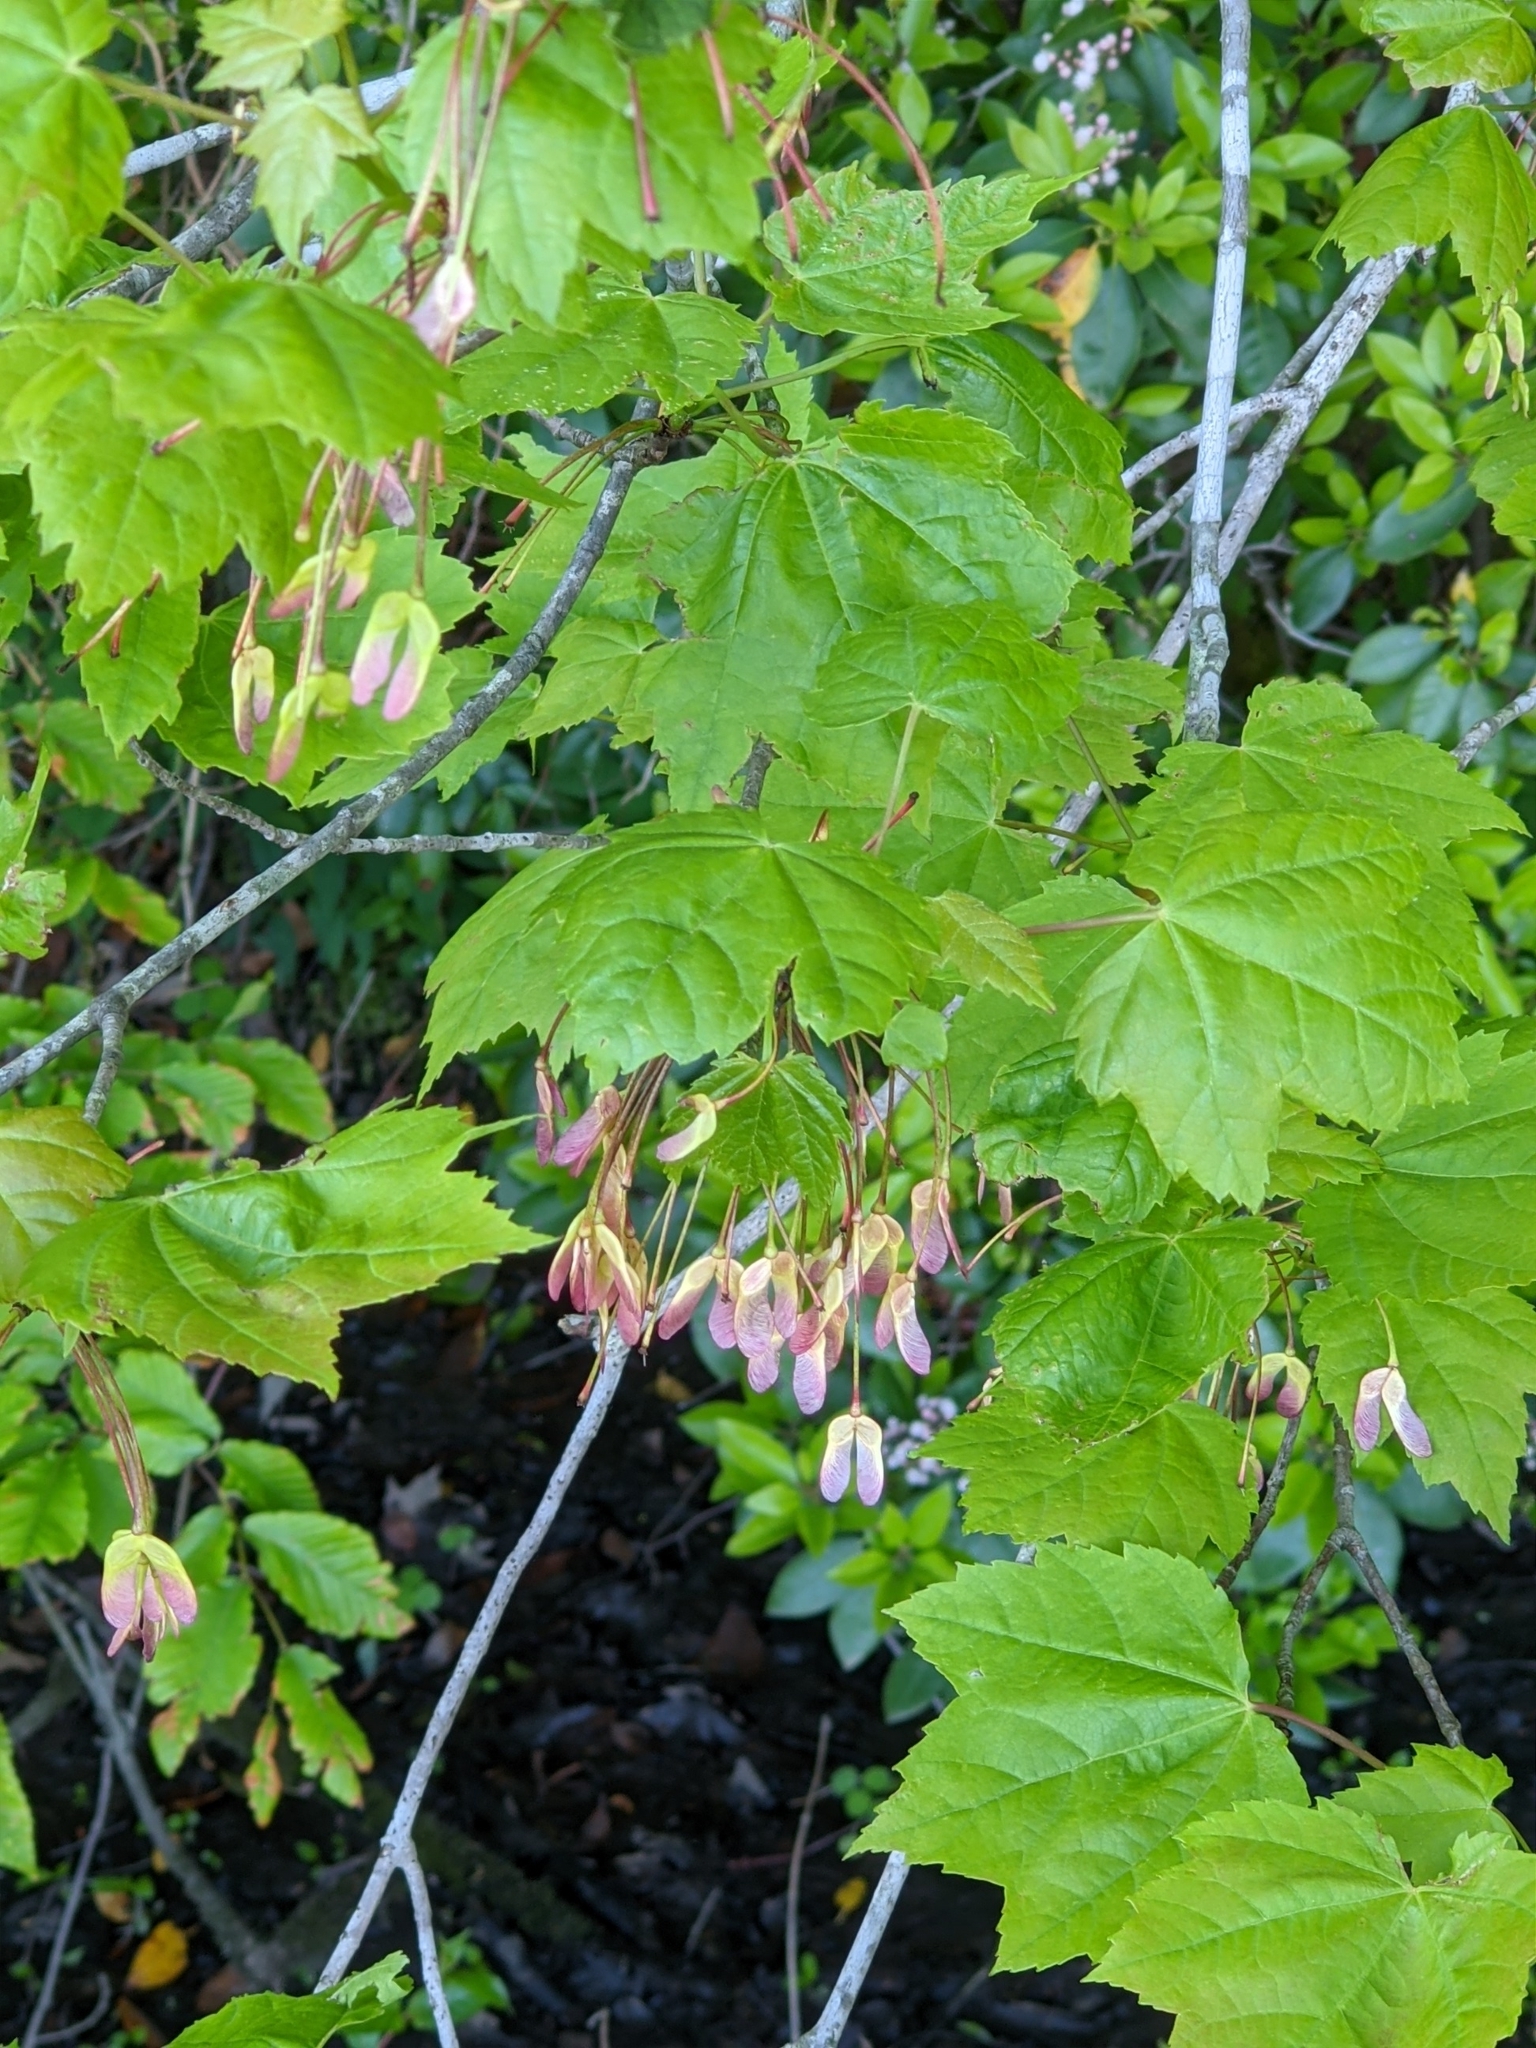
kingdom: Plantae
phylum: Tracheophyta
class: Magnoliopsida
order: Sapindales
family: Sapindaceae
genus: Acer
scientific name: Acer rubrum
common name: Red maple
